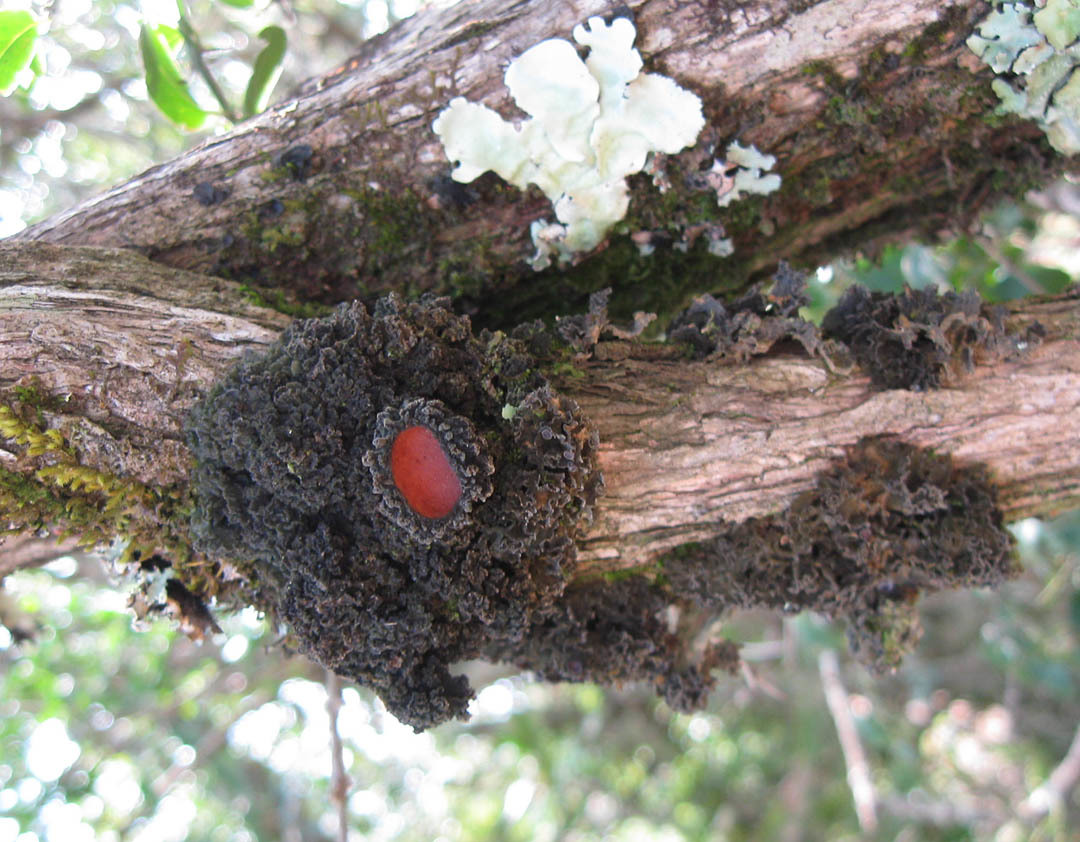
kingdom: Fungi
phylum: Ascomycota
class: Lecanoromycetes
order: Peltigerales
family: Collemataceae
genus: Leptogium
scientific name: Leptogium phyllocarpum
